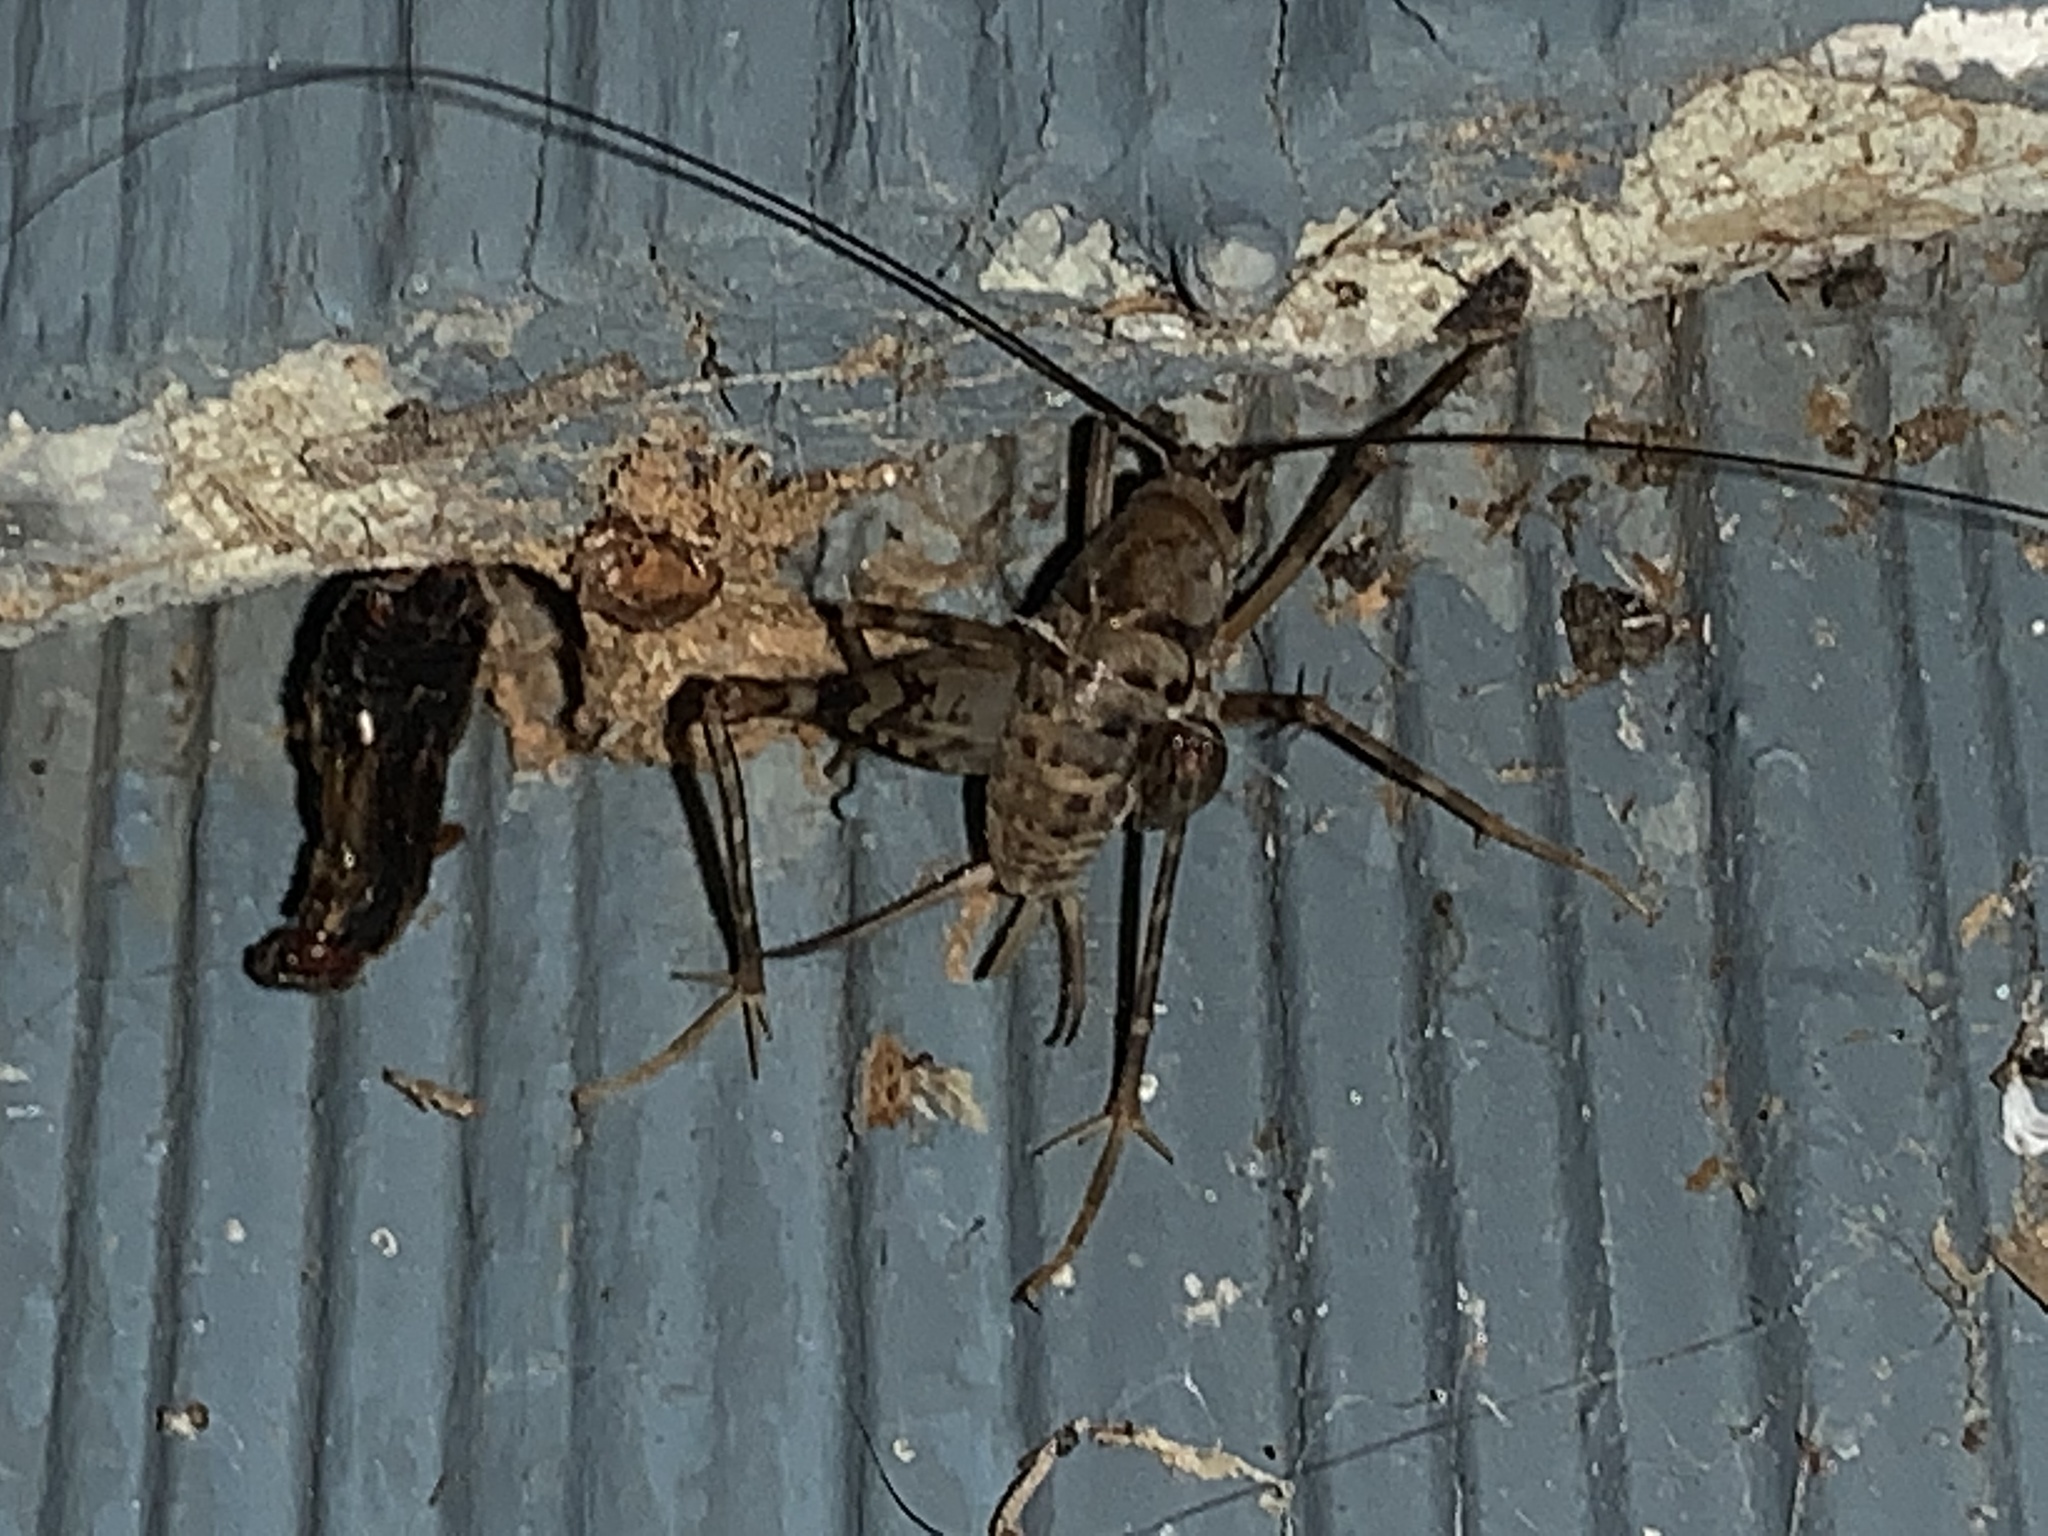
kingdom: Animalia
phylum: Arthropoda
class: Insecta
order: Orthoptera
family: Rhaphidophoridae
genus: Tachycines
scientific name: Tachycines asynamorus
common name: Greenhouse camel cricket
